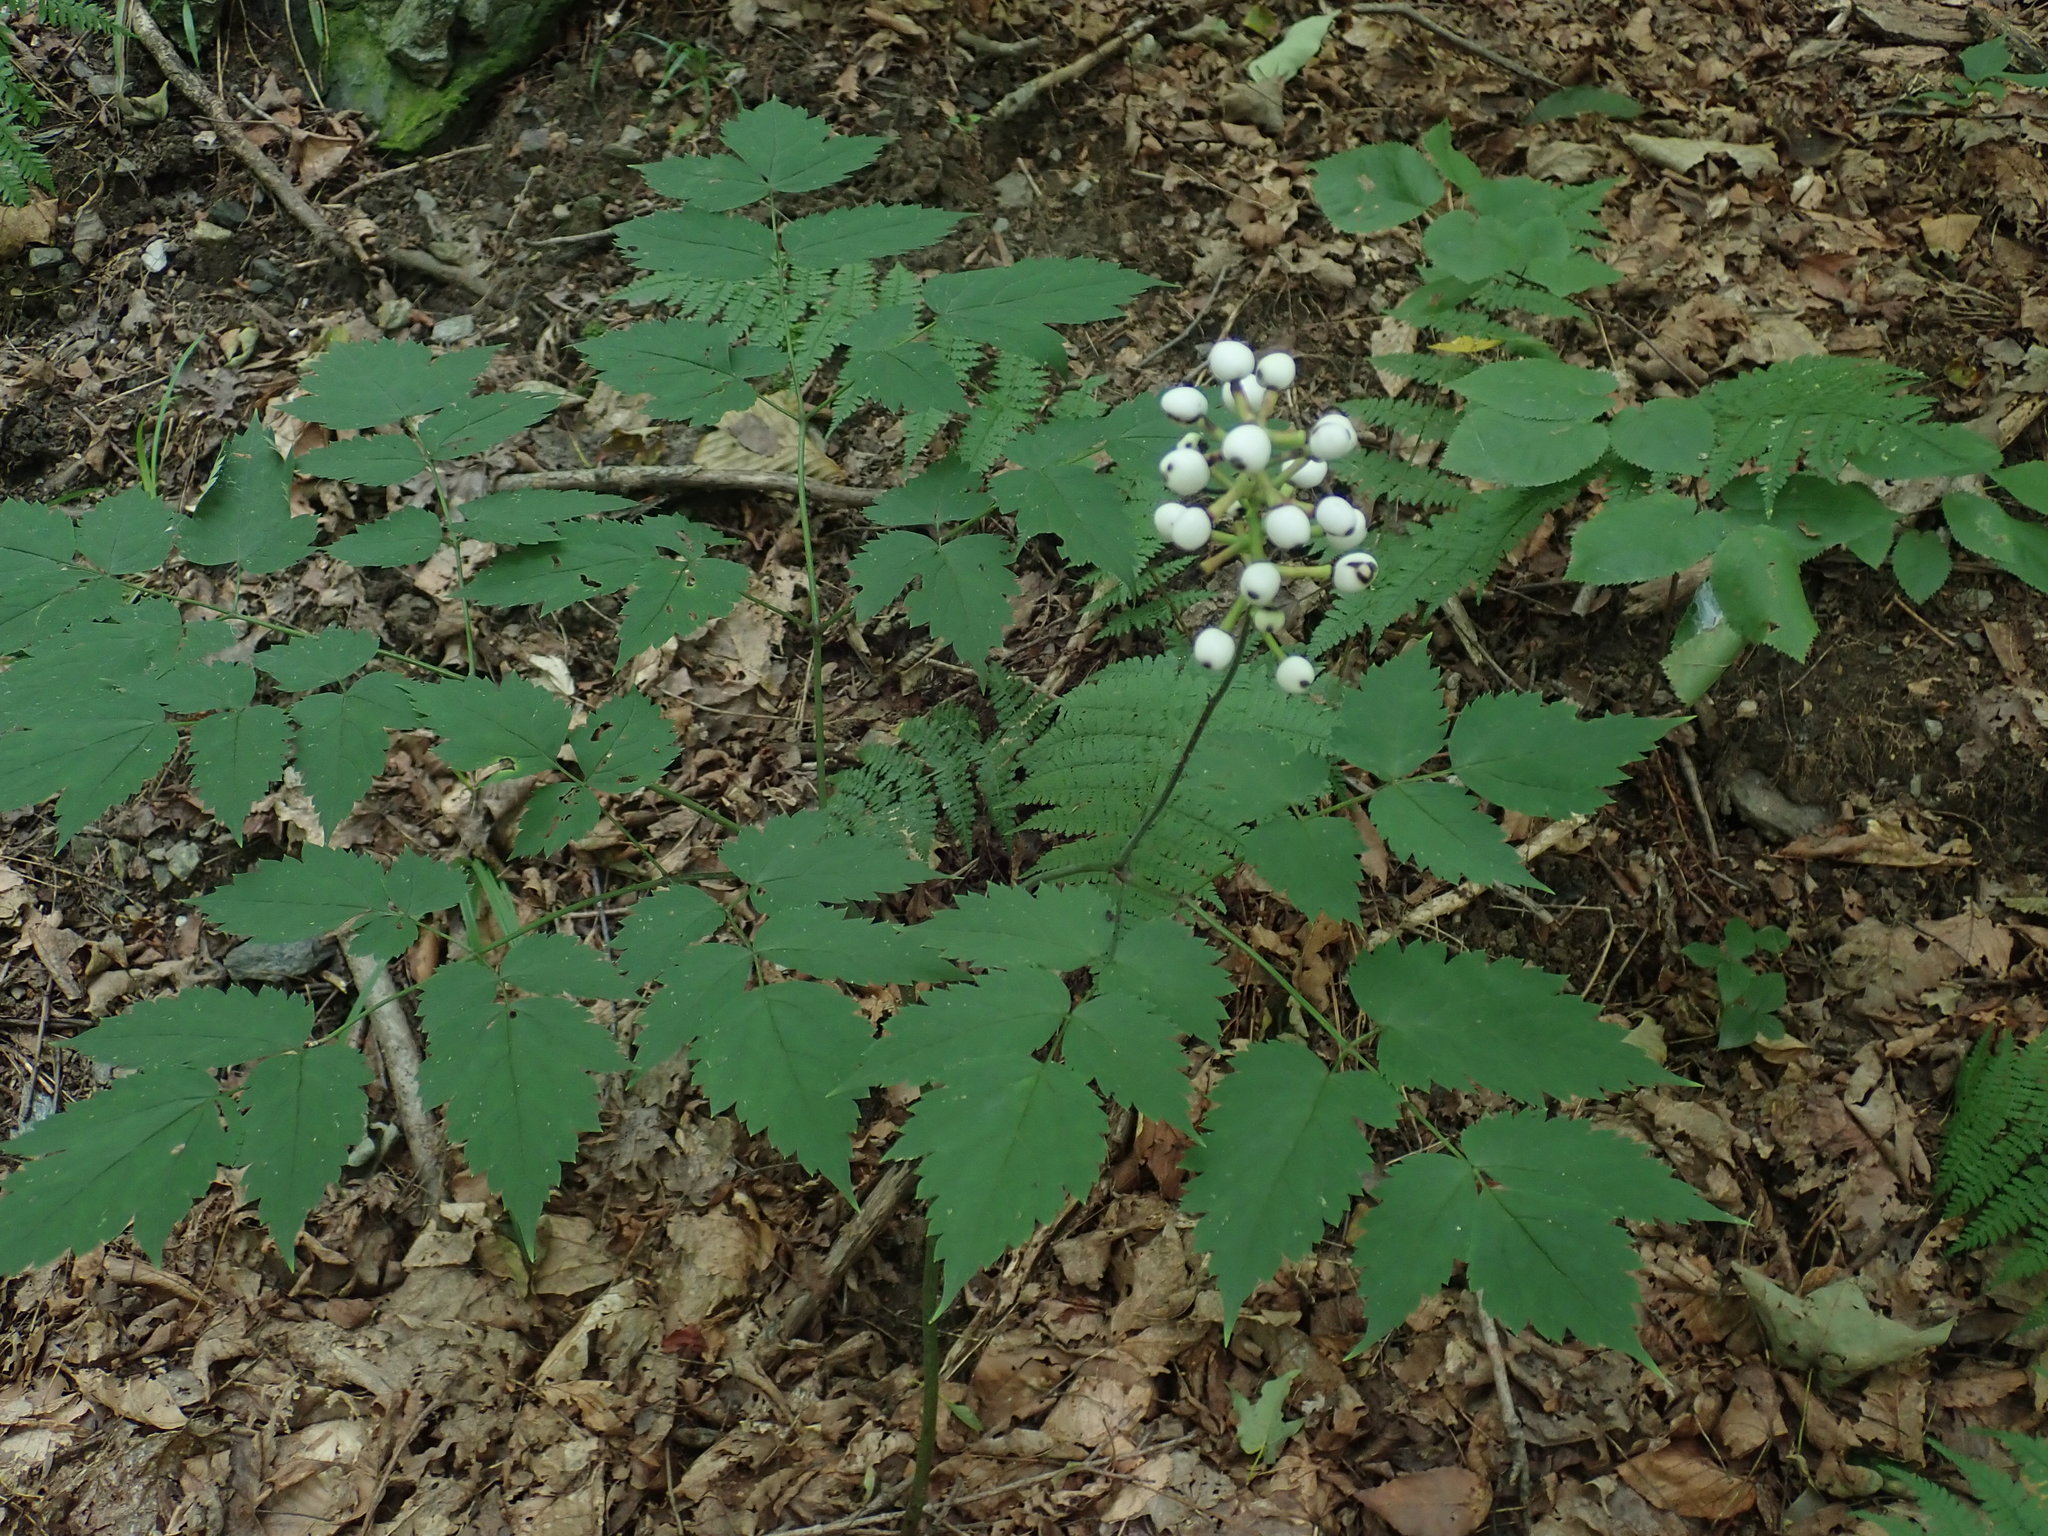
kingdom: Plantae
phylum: Tracheophyta
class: Magnoliopsida
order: Ranunculales
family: Ranunculaceae
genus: Actaea
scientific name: Actaea pachypoda
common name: Doll's-eyes
